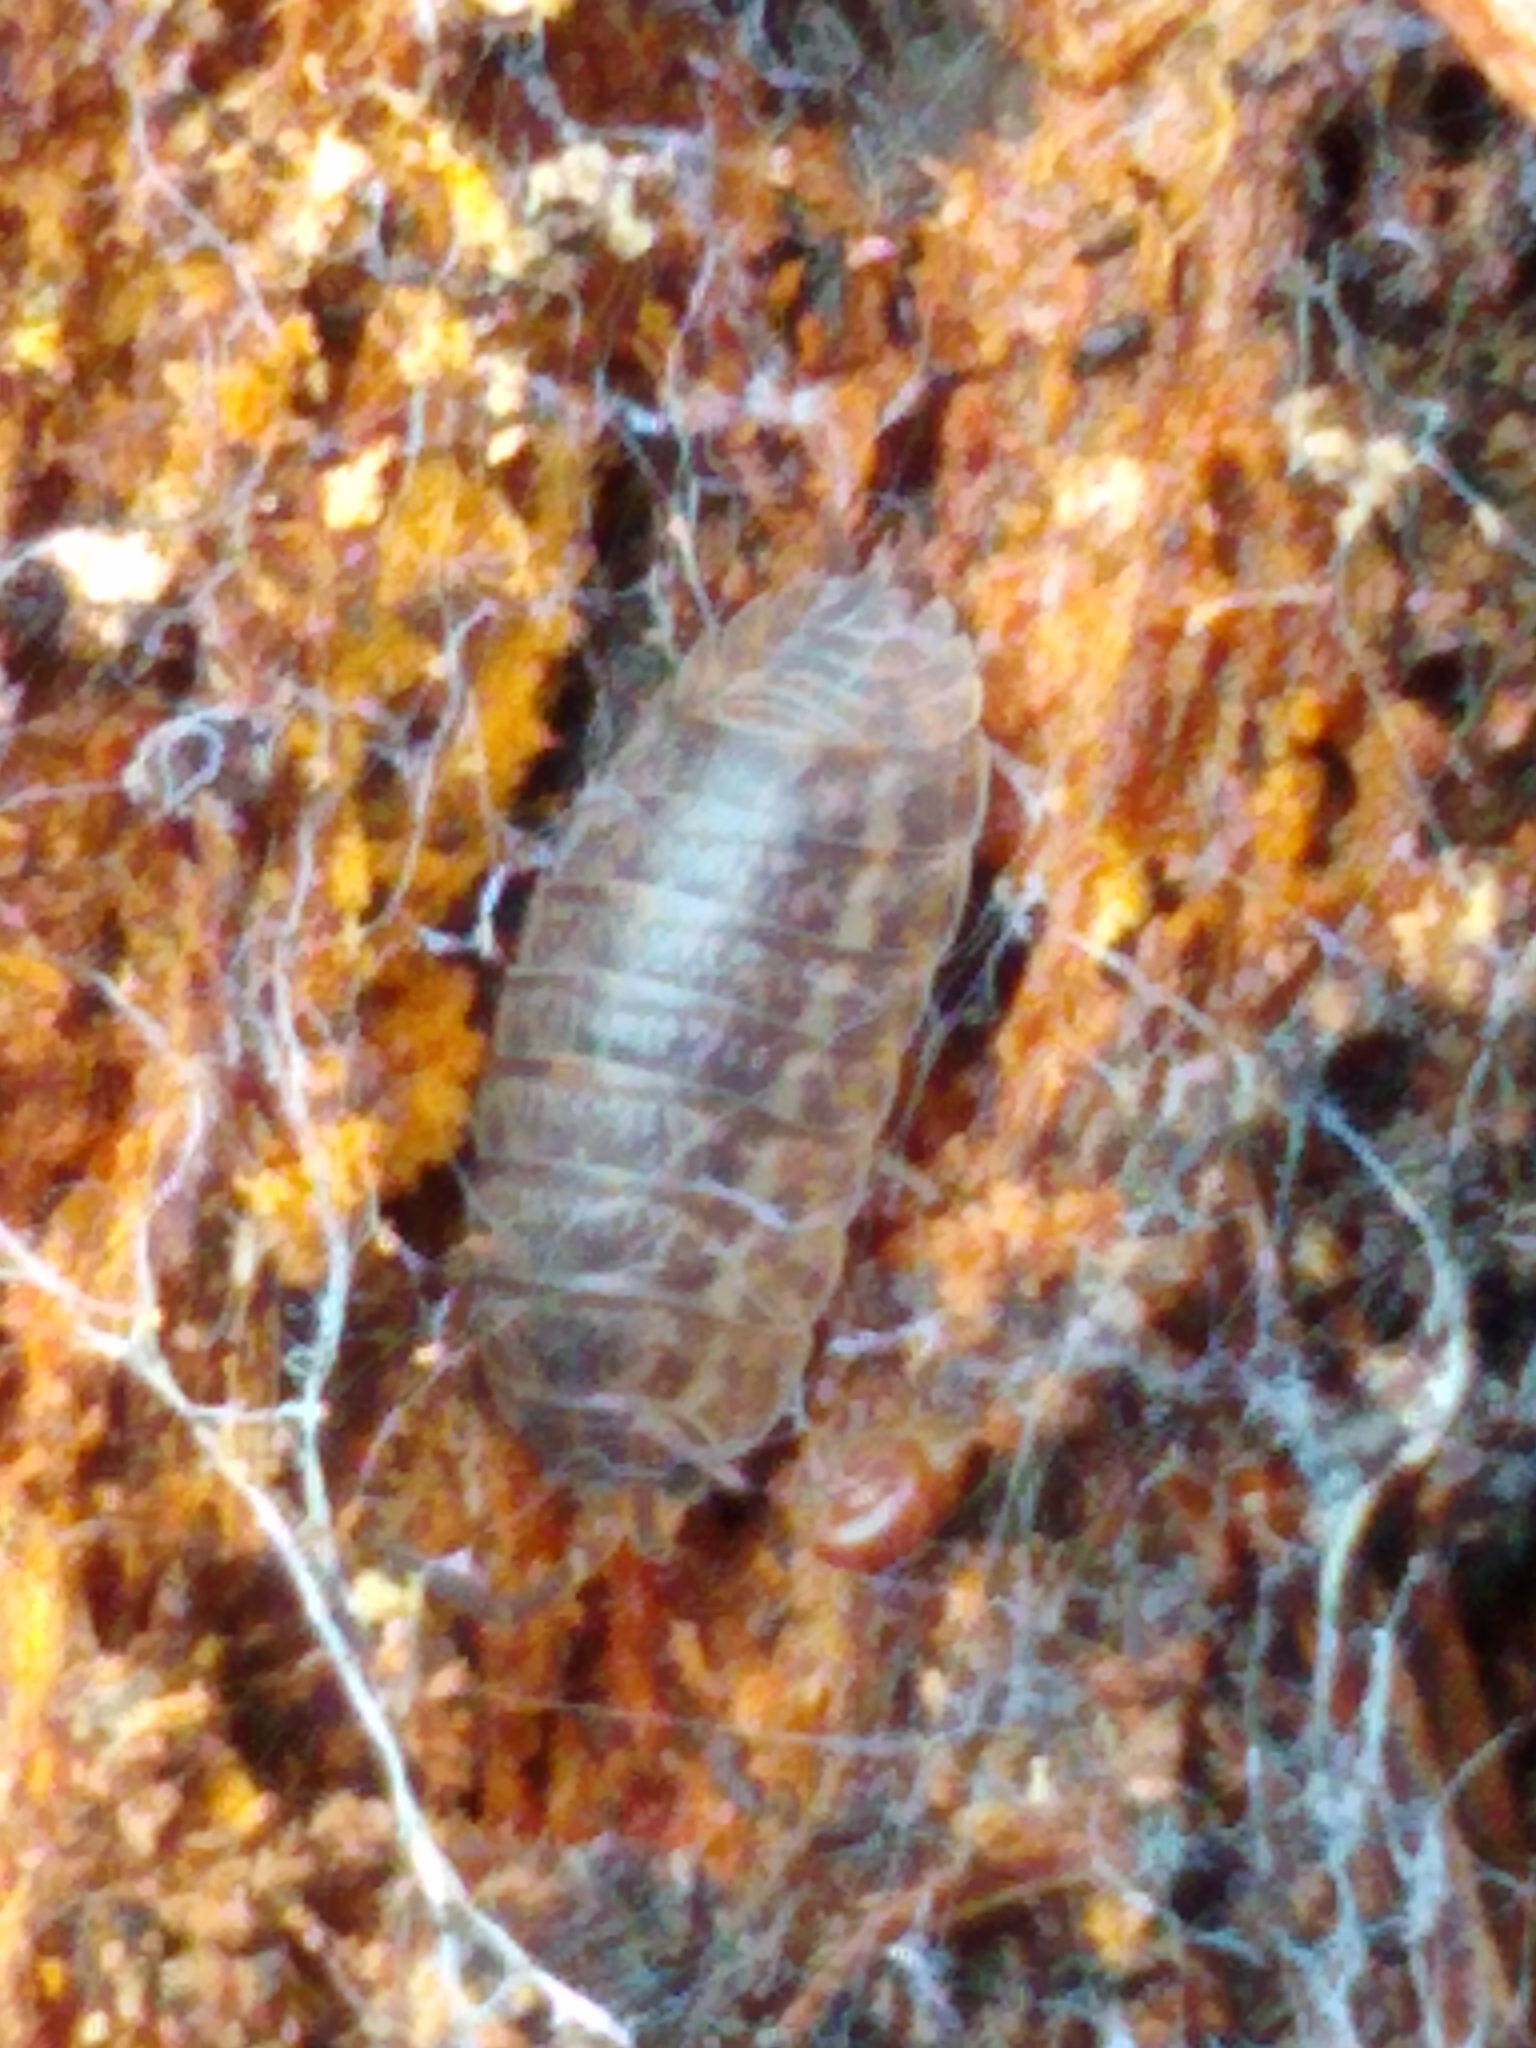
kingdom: Animalia
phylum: Arthropoda
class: Malacostraca
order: Isopoda
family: Trachelipodidae
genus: Trachelipus
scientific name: Trachelipus rathkii
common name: Isopod
